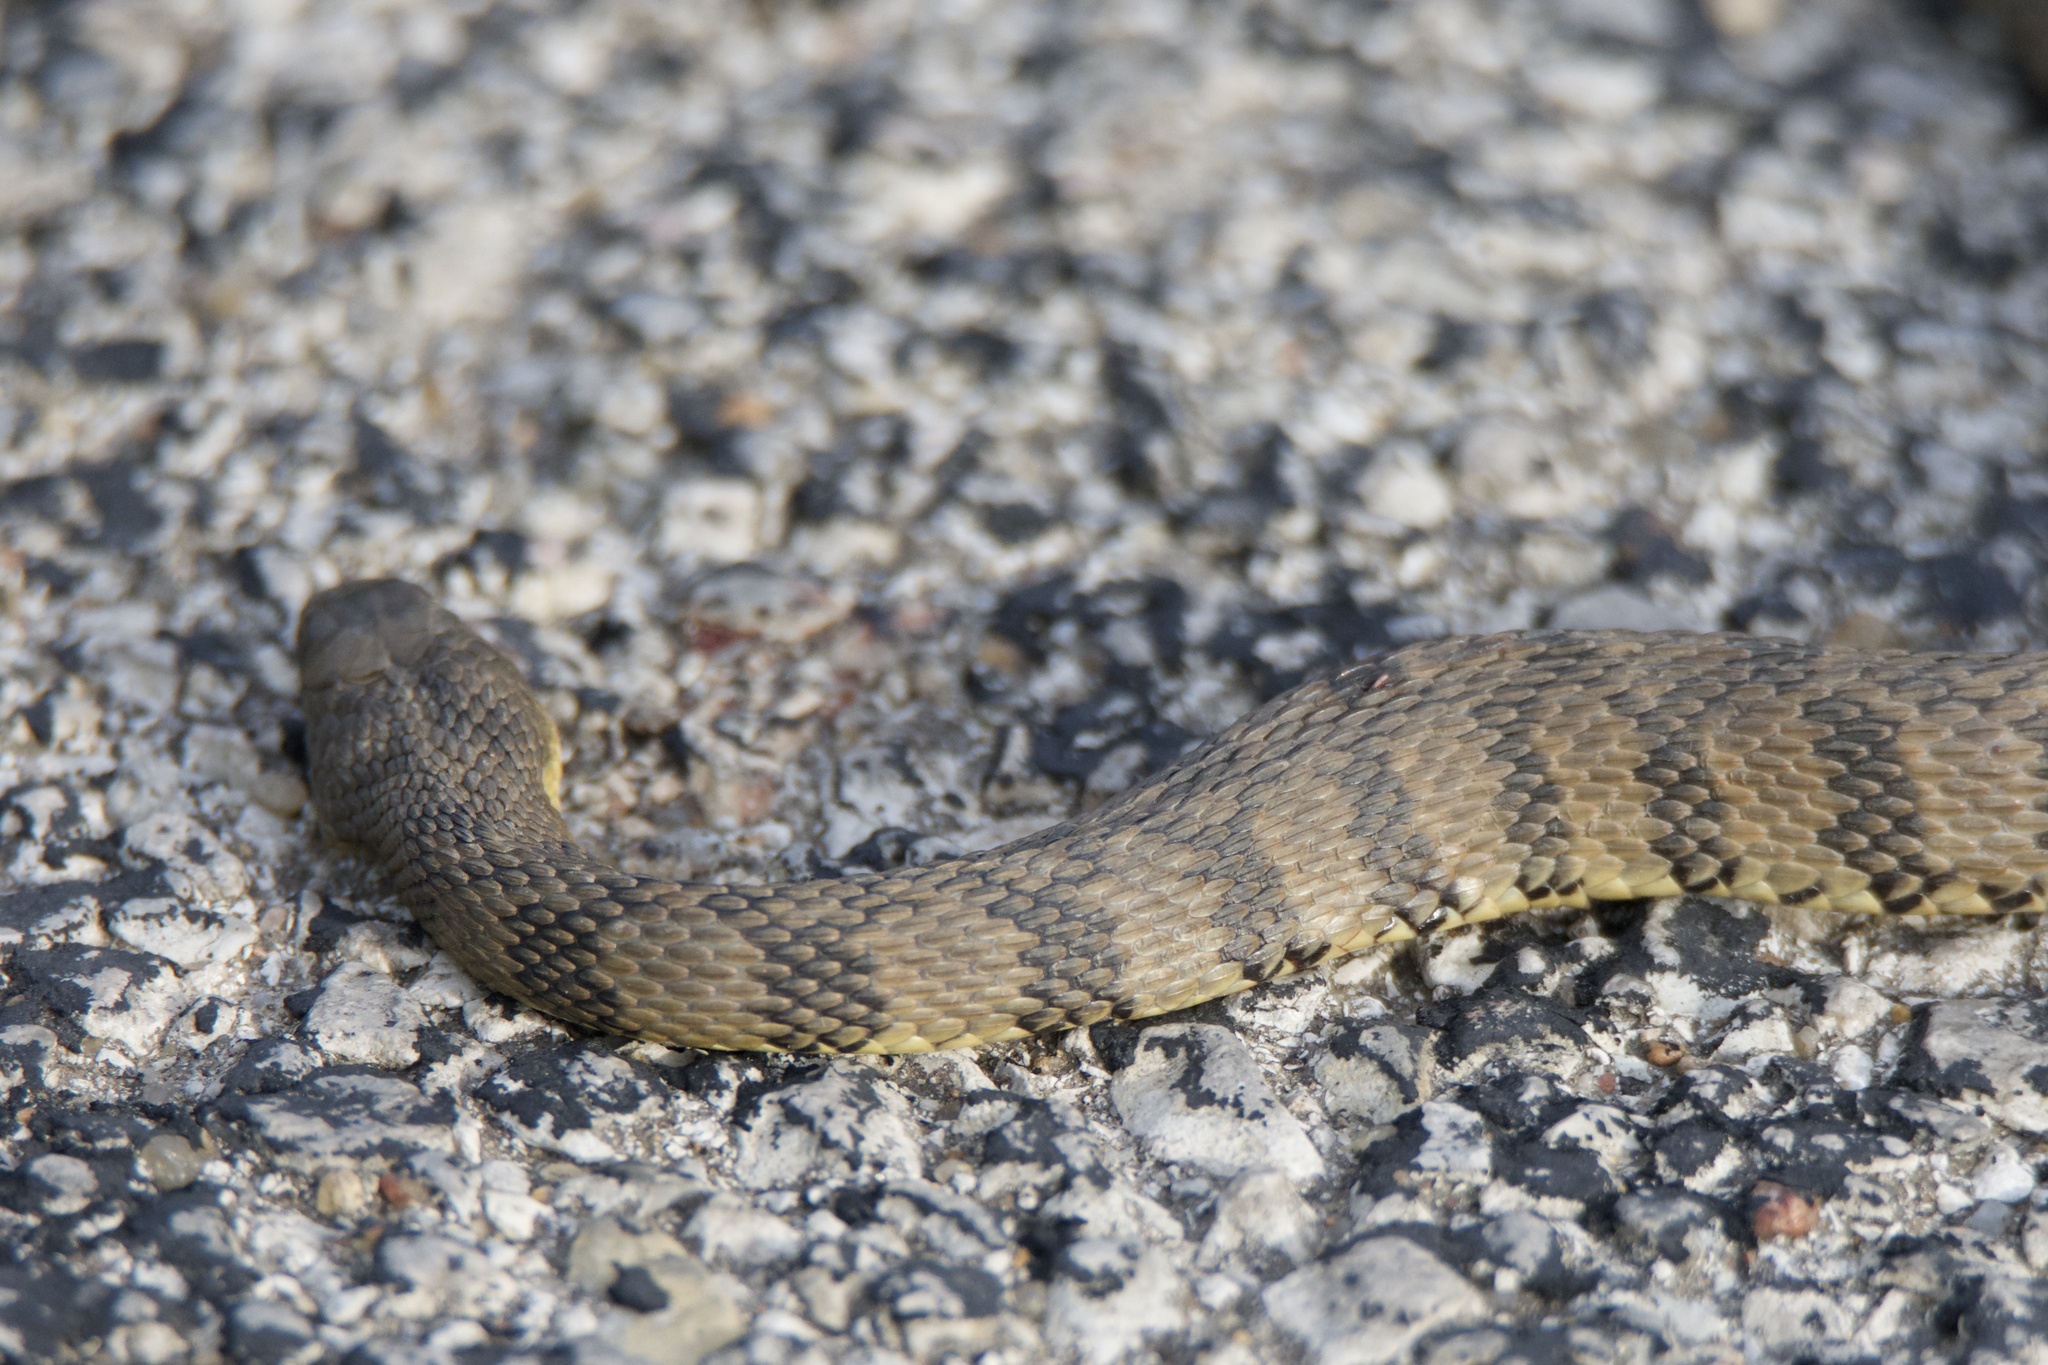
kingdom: Animalia
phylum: Chordata
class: Squamata
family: Colubridae
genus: Nerodia
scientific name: Nerodia rhombifer
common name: Diamondback water snake
